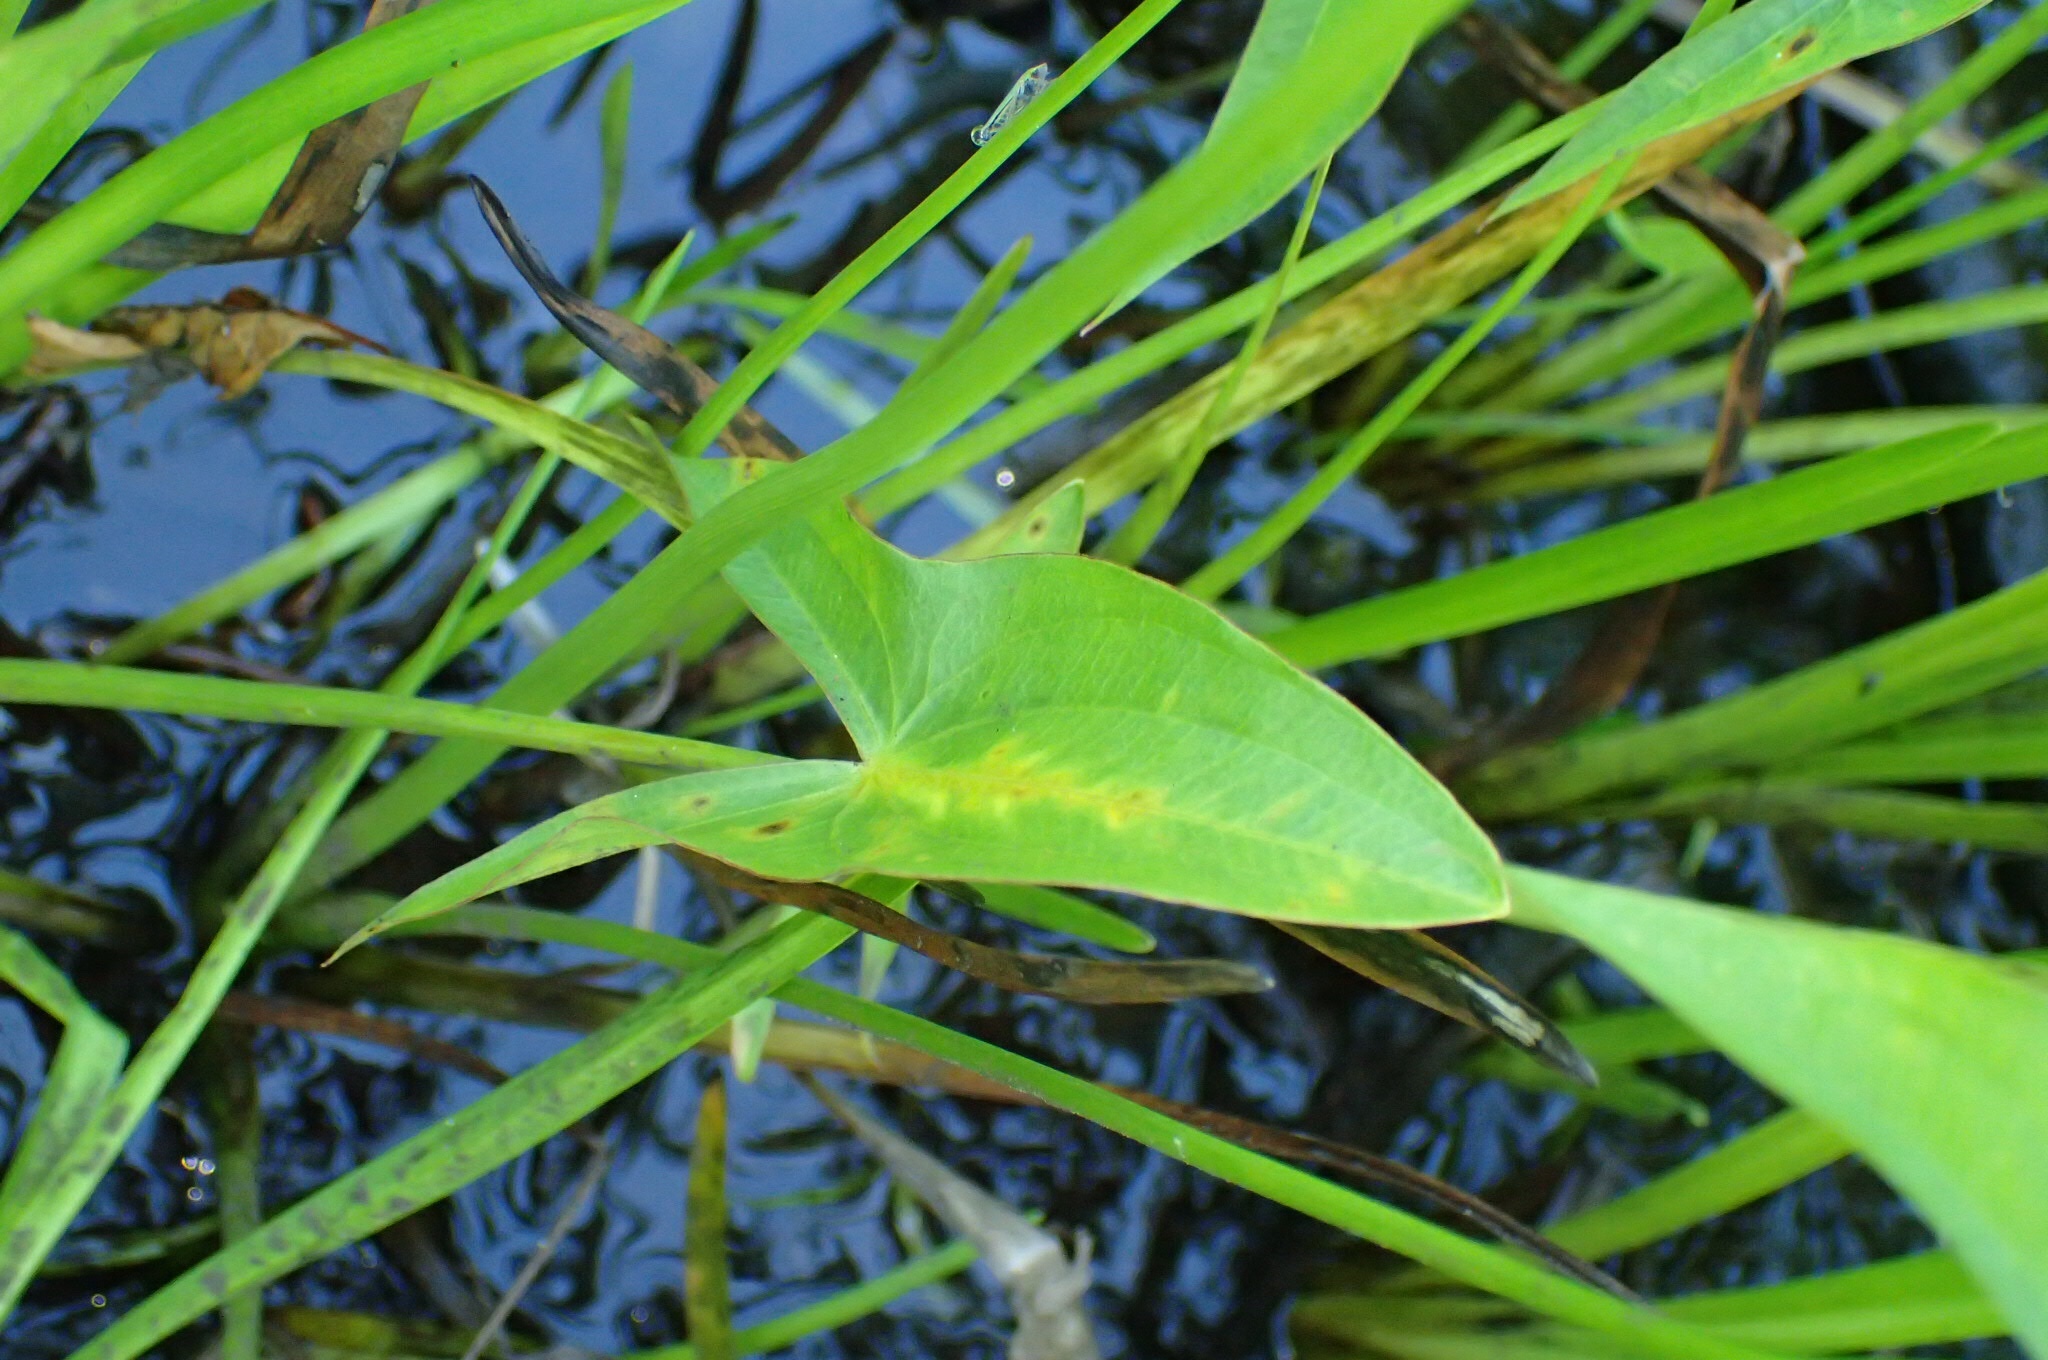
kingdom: Plantae
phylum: Tracheophyta
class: Liliopsida
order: Alismatales
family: Alismataceae
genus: Sagittaria
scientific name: Sagittaria latifolia
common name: Duck-potato
